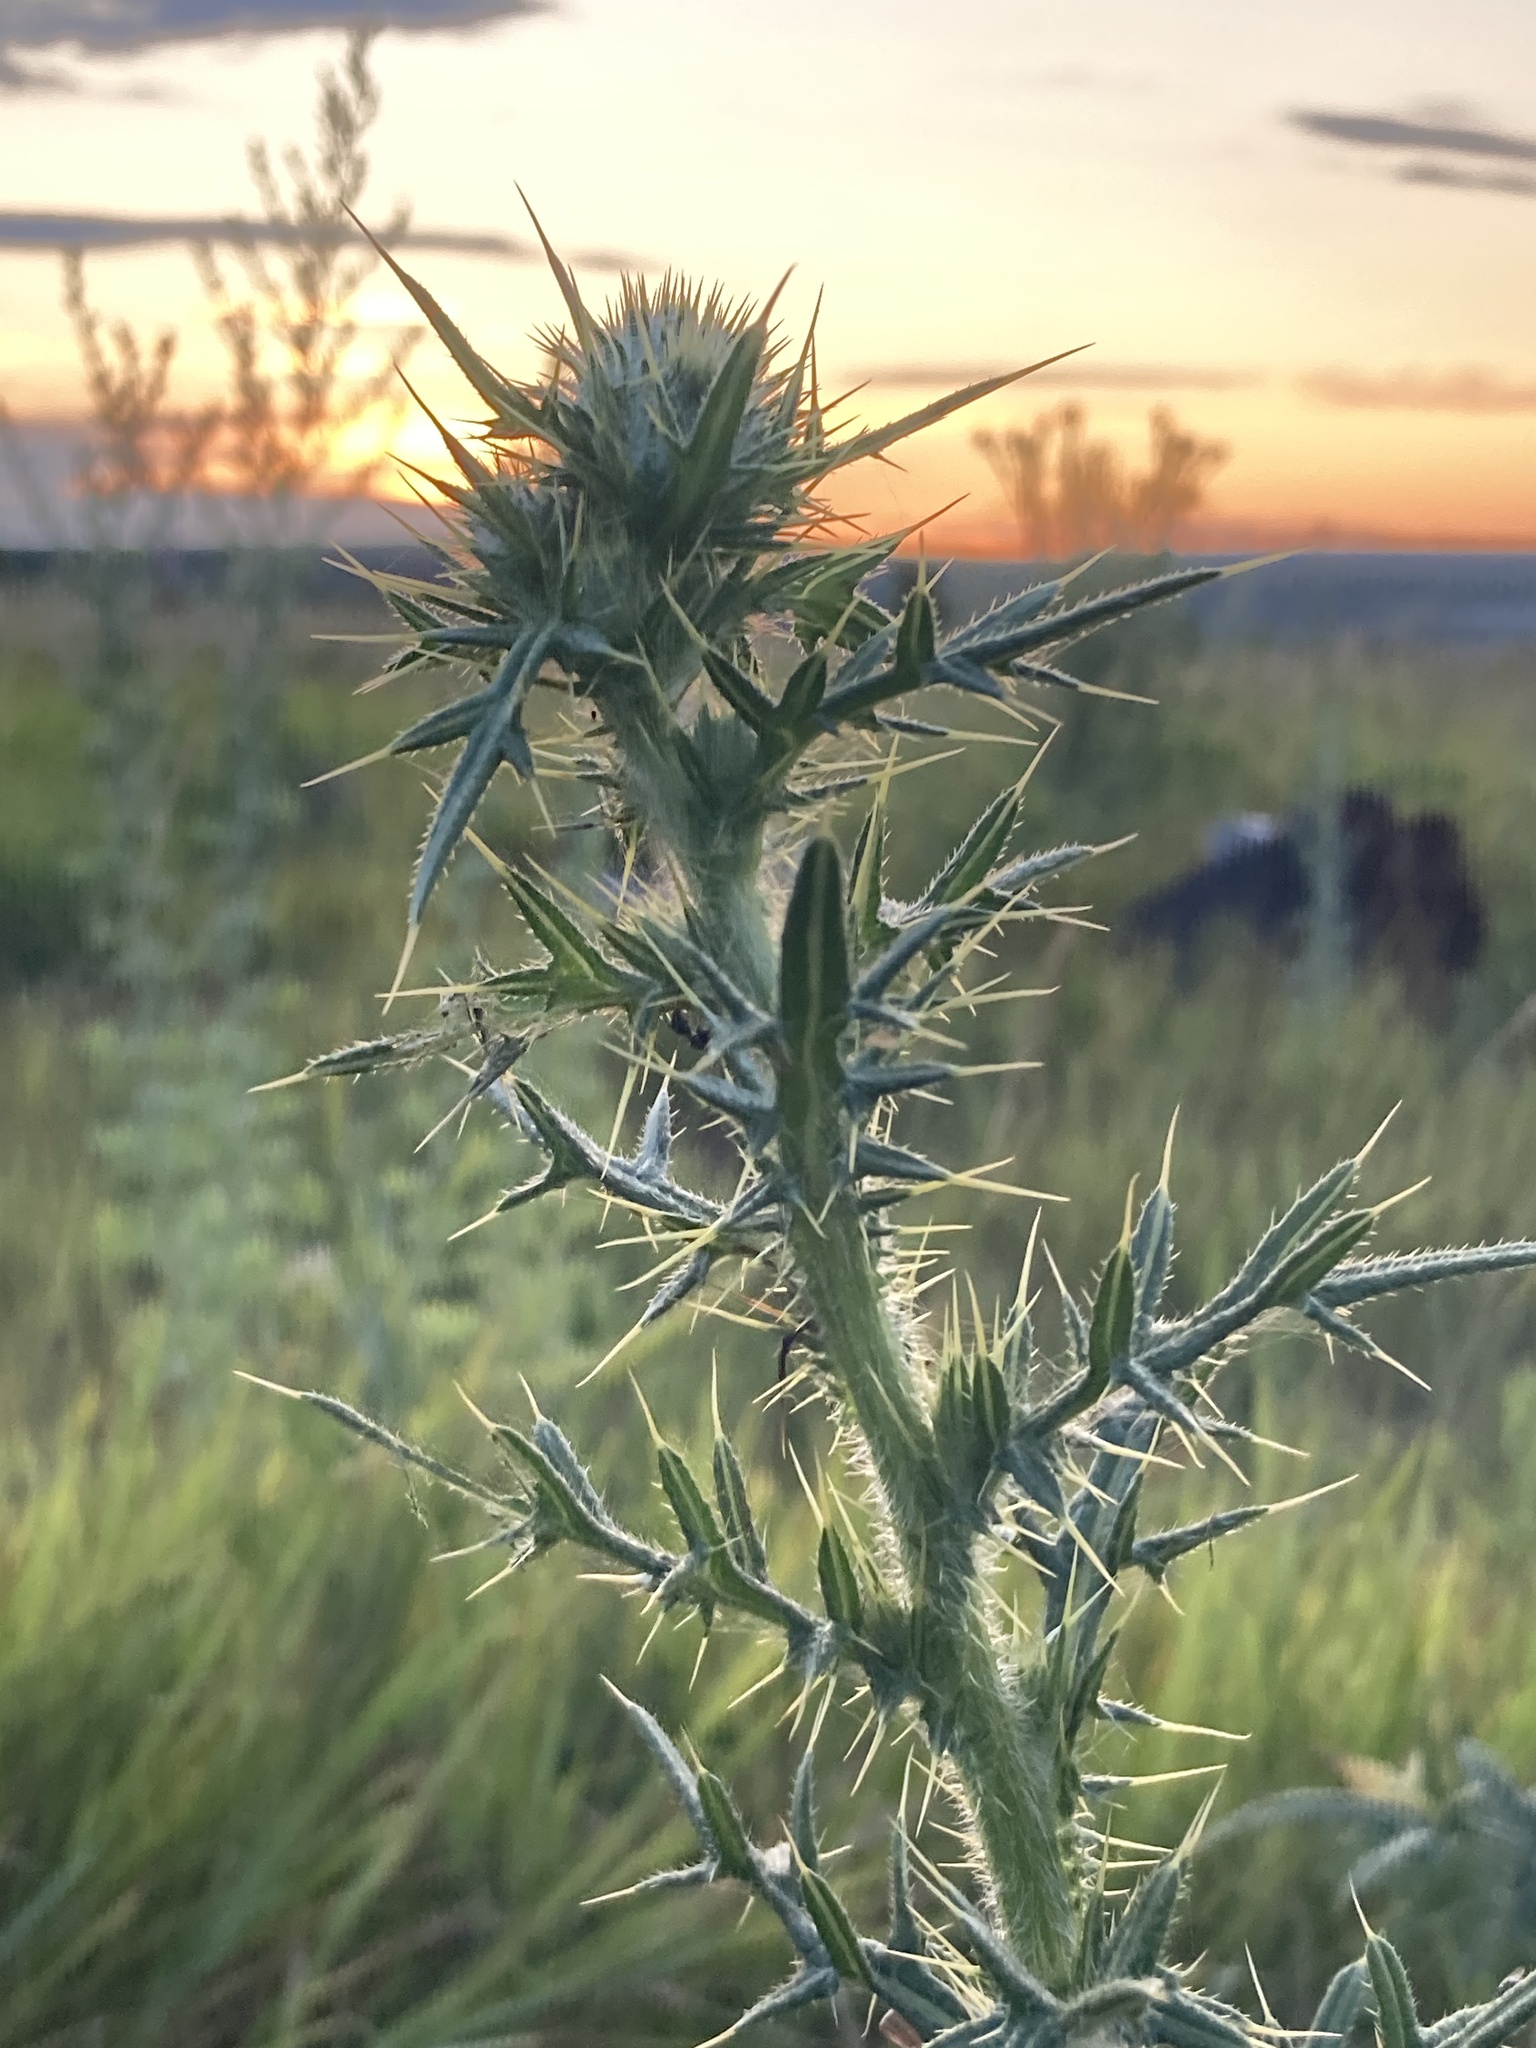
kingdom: Plantae
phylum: Tracheophyta
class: Magnoliopsida
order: Asterales
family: Asteraceae
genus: Cirsium
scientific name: Cirsium vulgare
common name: Bull thistle
